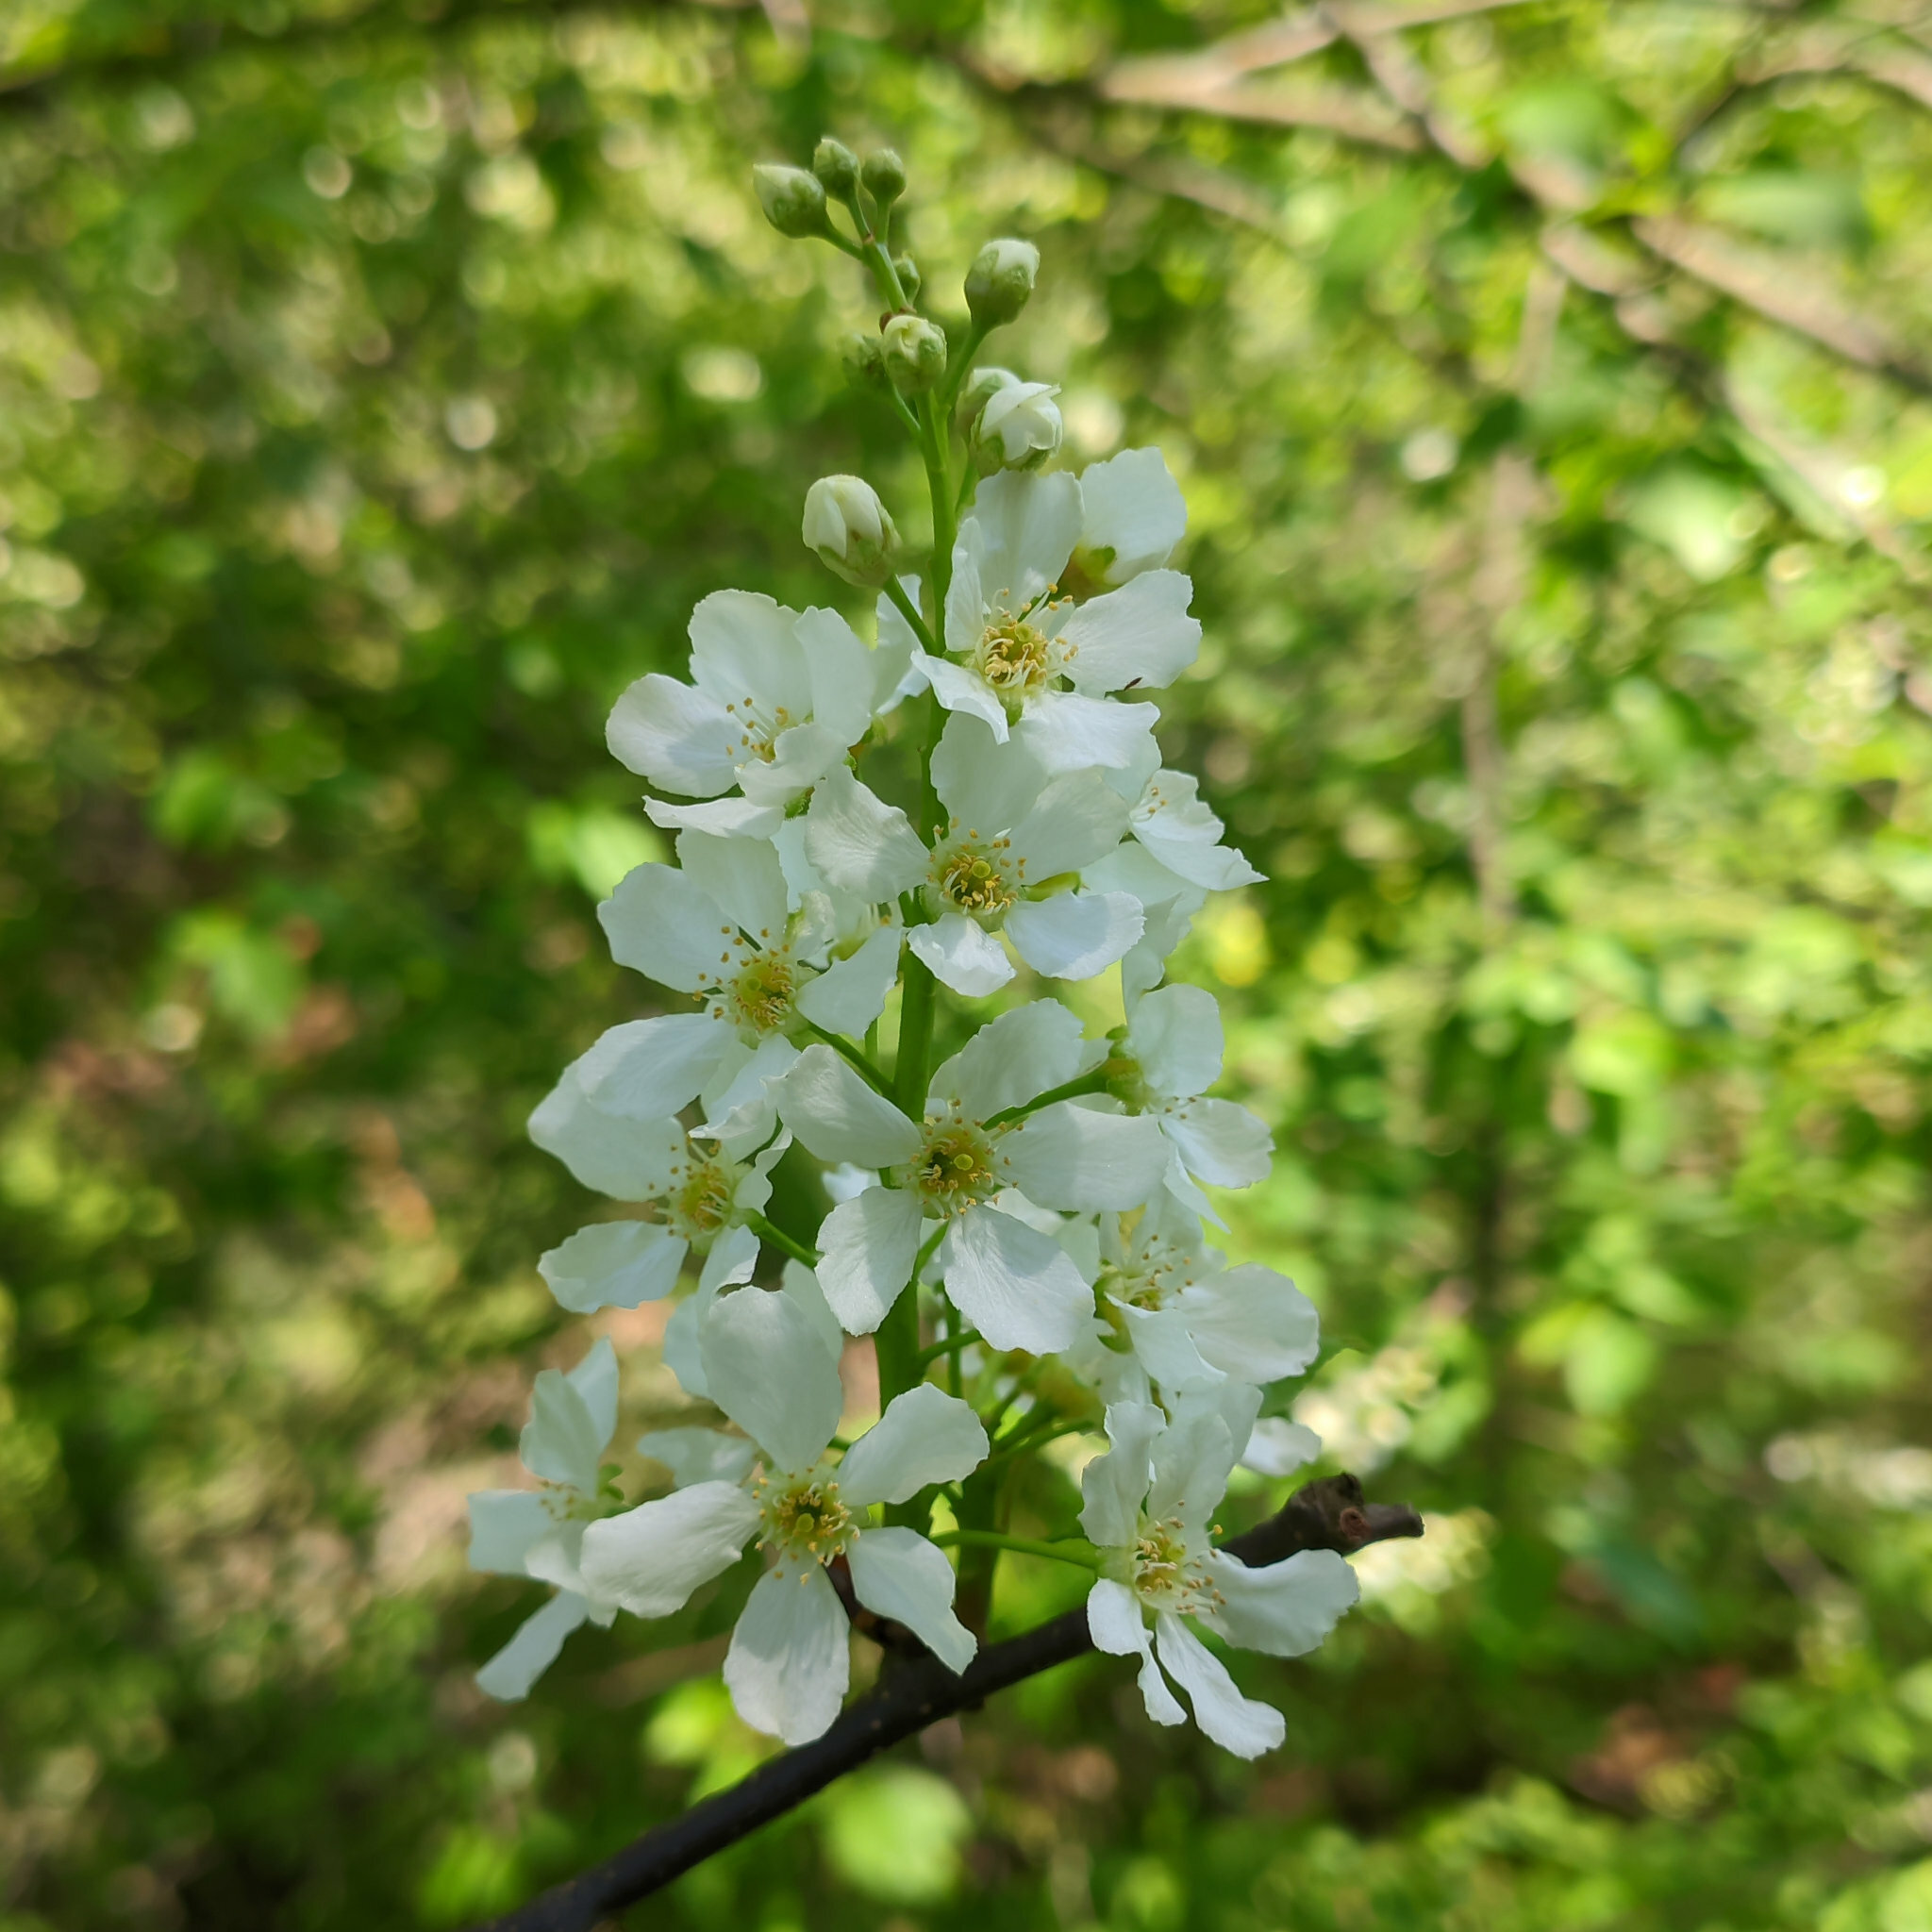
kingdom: Plantae
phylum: Tracheophyta
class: Magnoliopsida
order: Rosales
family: Rosaceae
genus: Prunus
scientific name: Prunus padus
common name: Bird cherry
